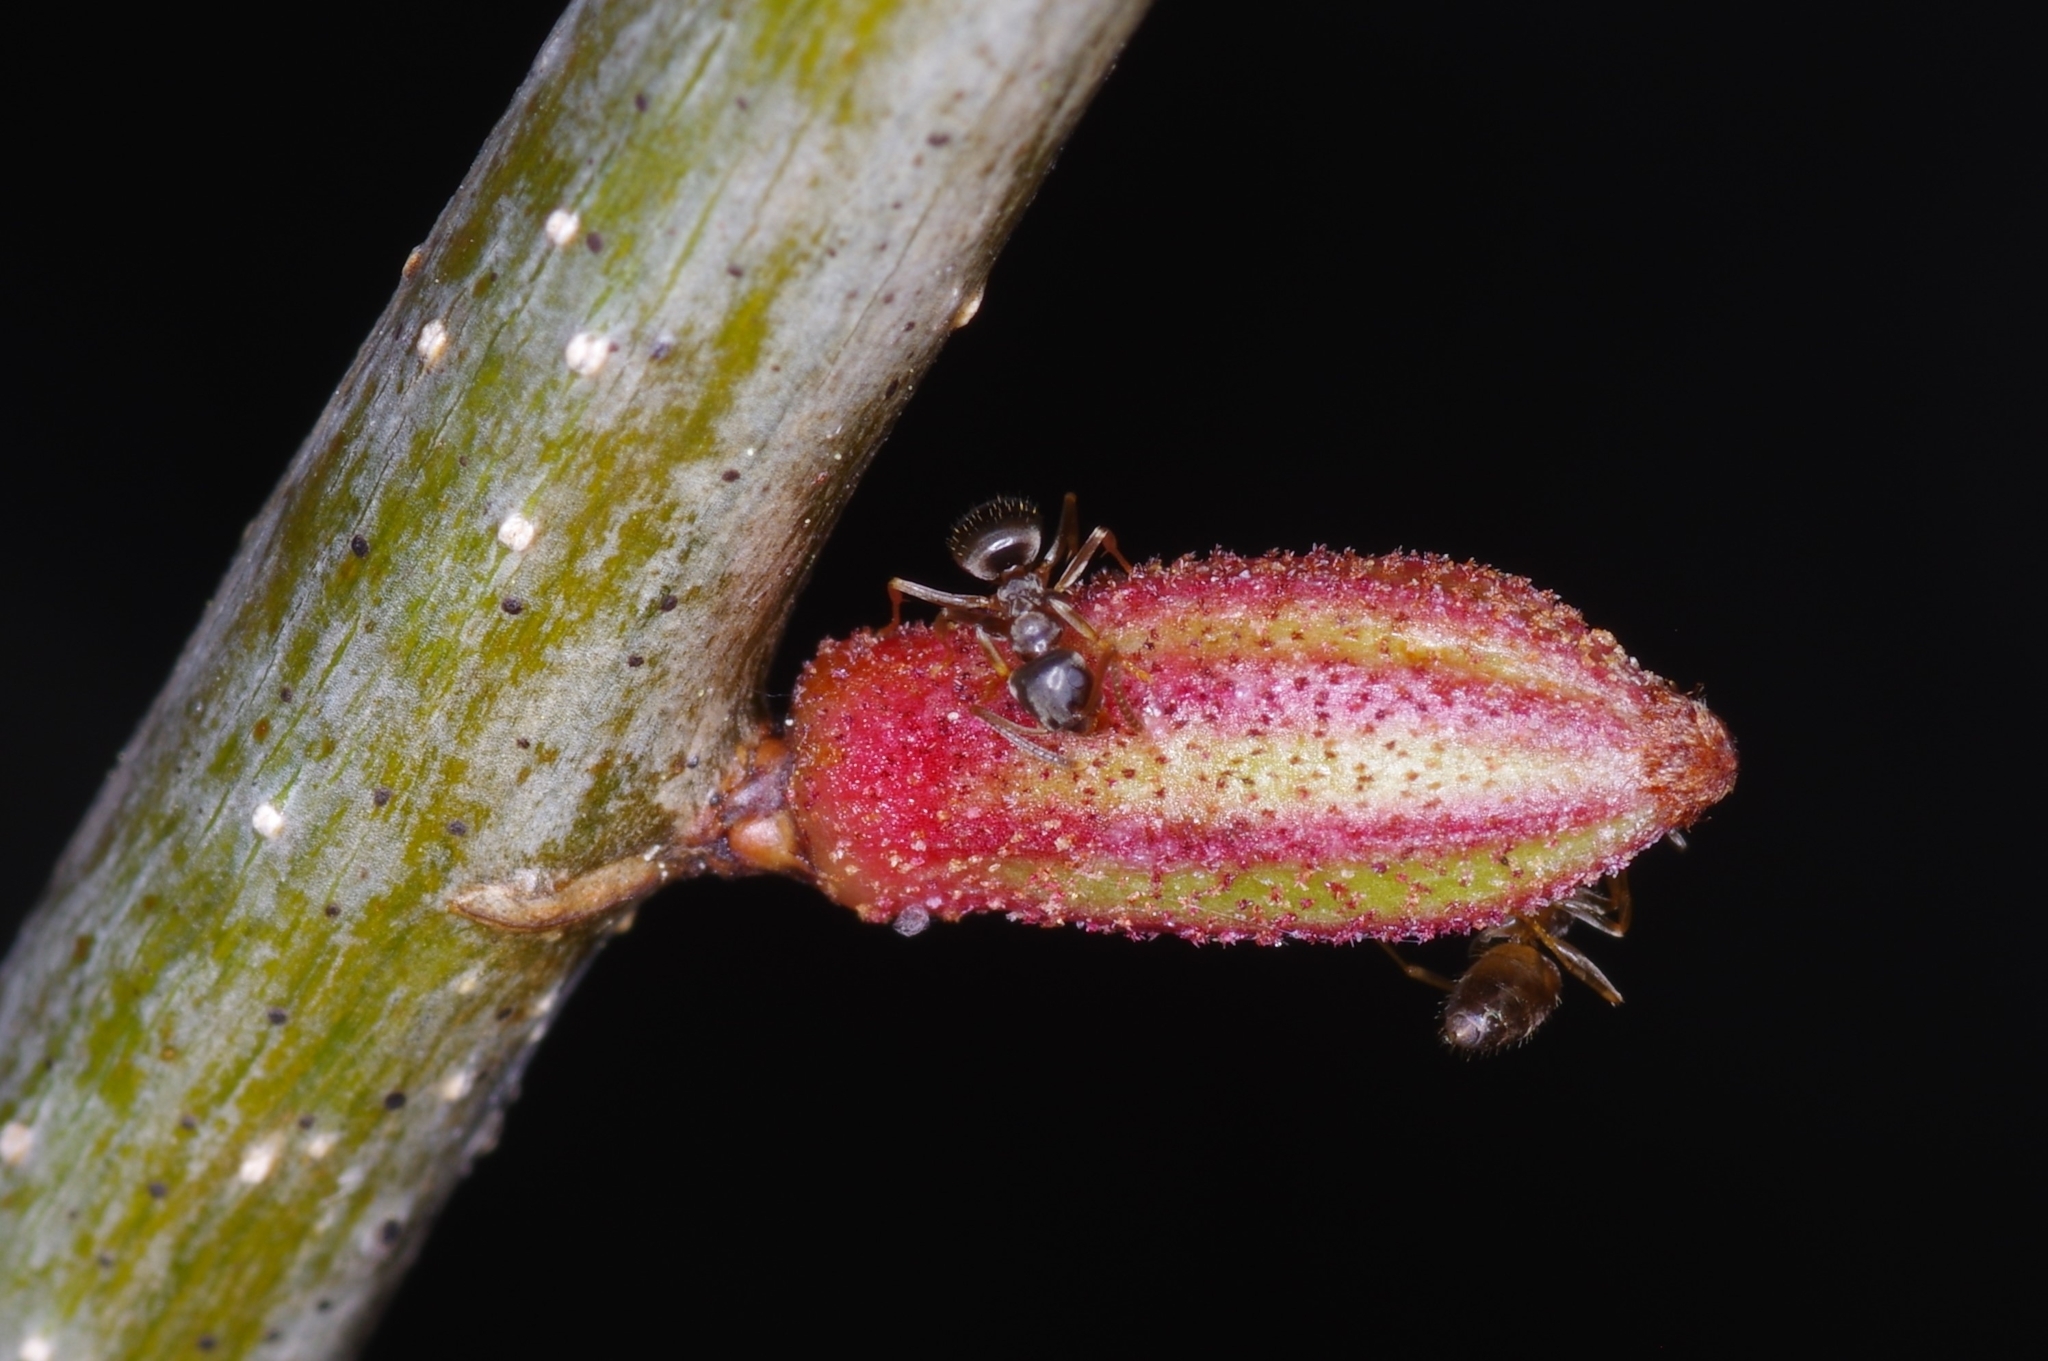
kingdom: Animalia
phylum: Arthropoda
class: Insecta
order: Hymenoptera
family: Cynipidae
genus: Callirhytis
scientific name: Callirhytis
